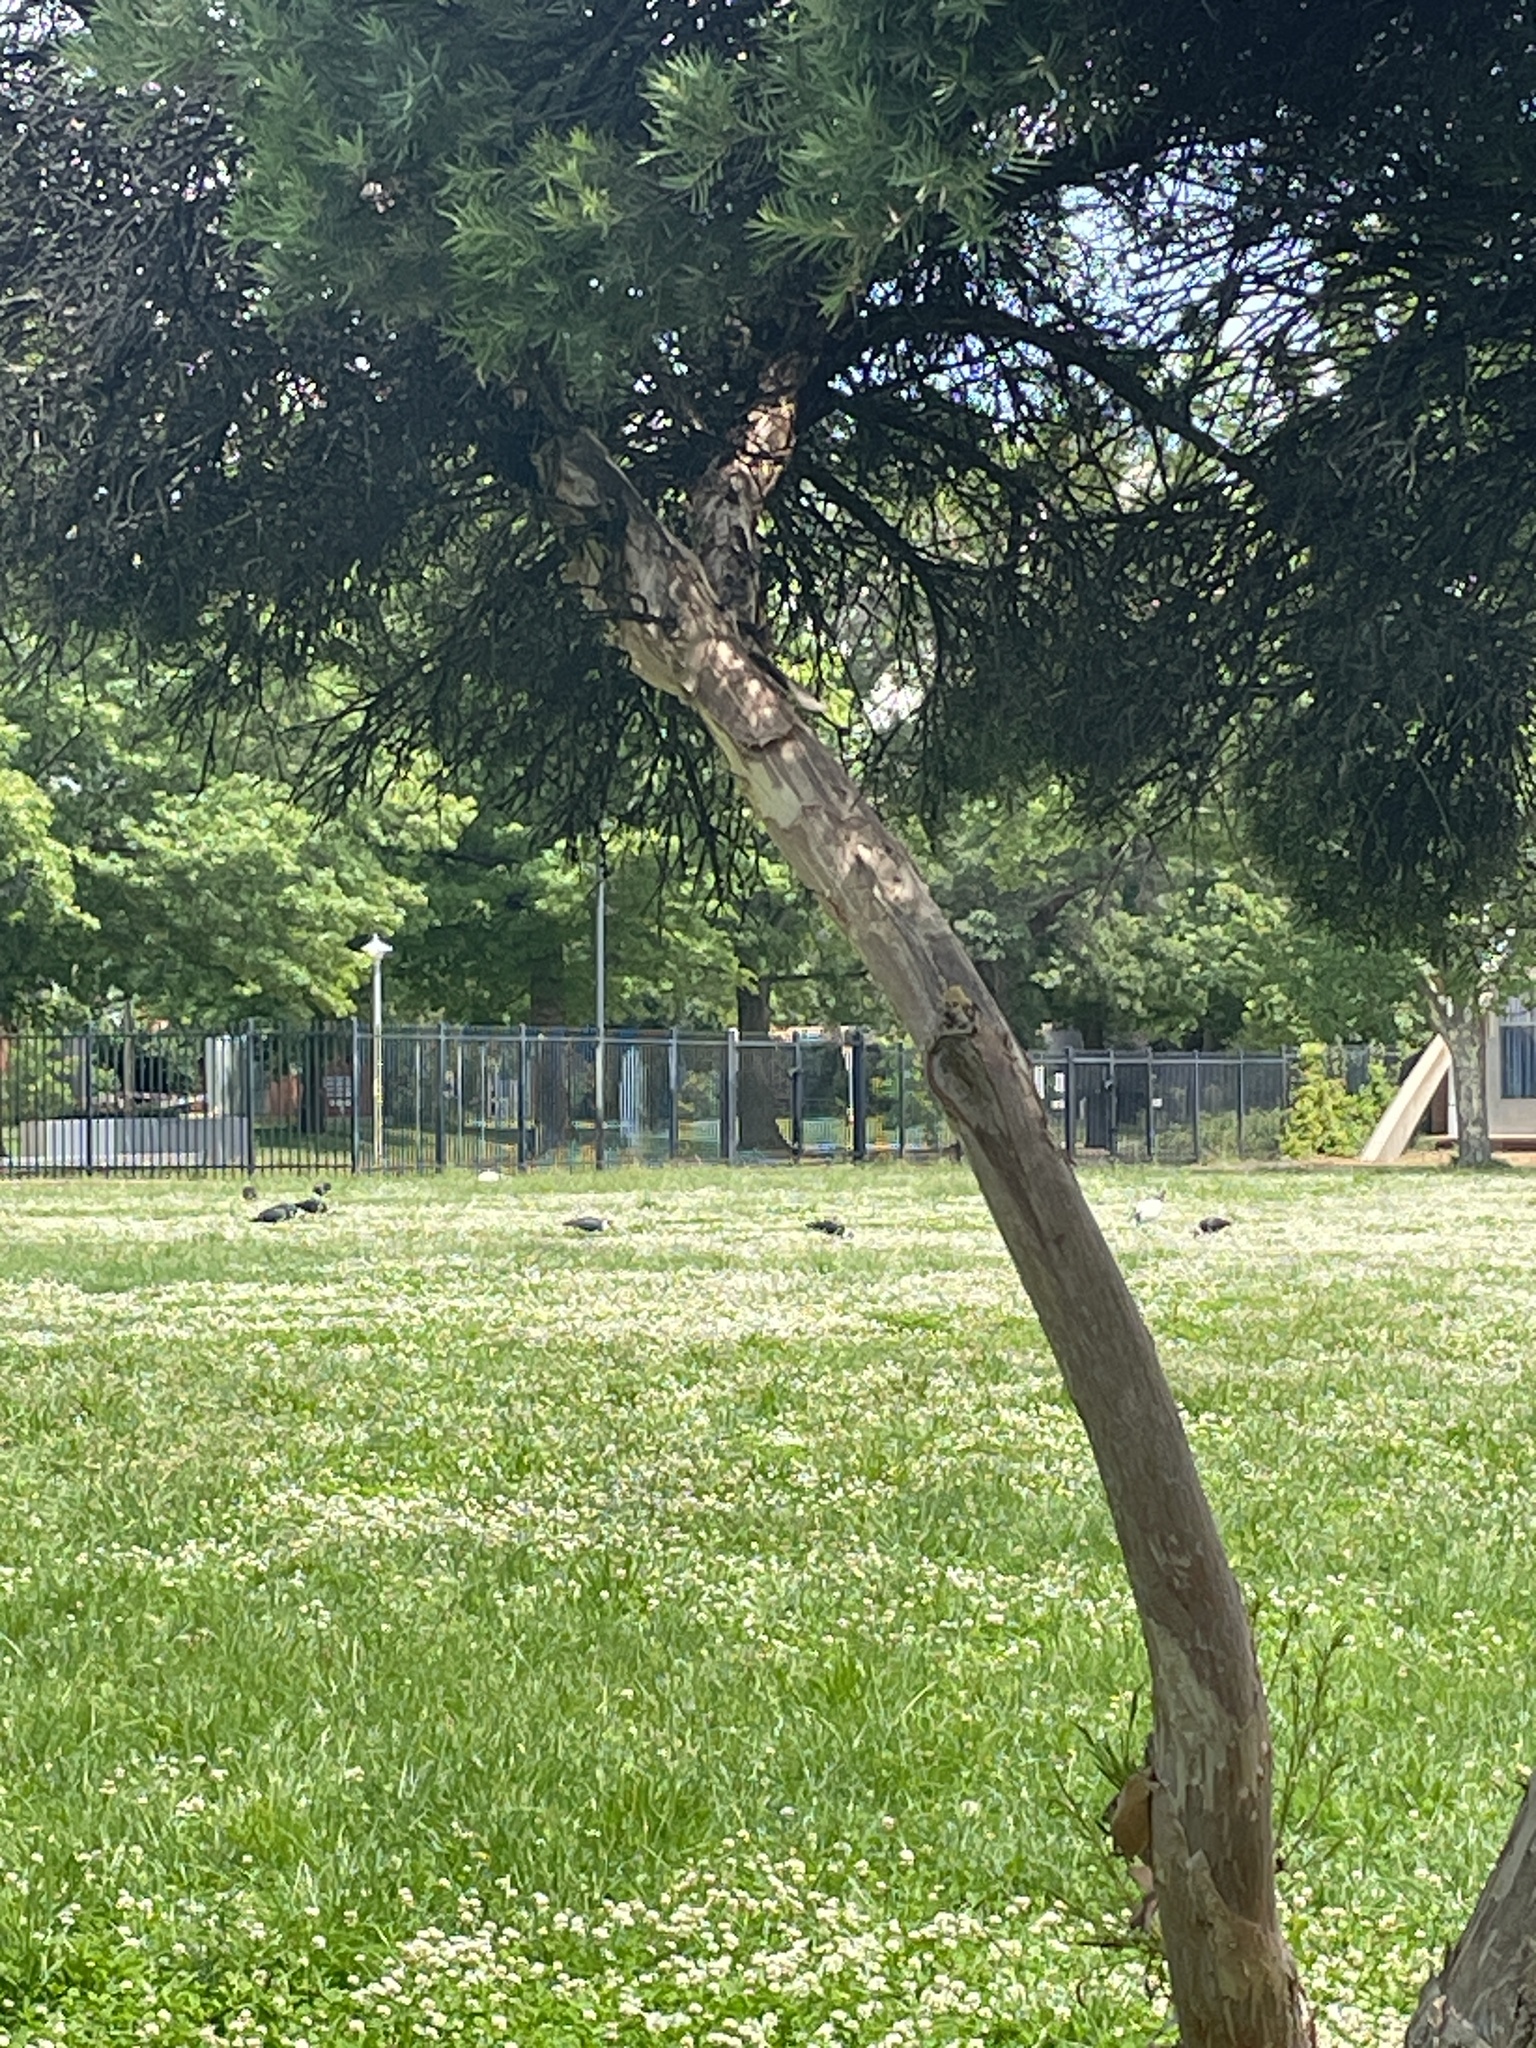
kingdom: Animalia
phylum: Chordata
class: Aves
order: Pelecaniformes
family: Threskiornithidae
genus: Threskiornis
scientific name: Threskiornis spinicollis
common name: Straw-necked ibis
